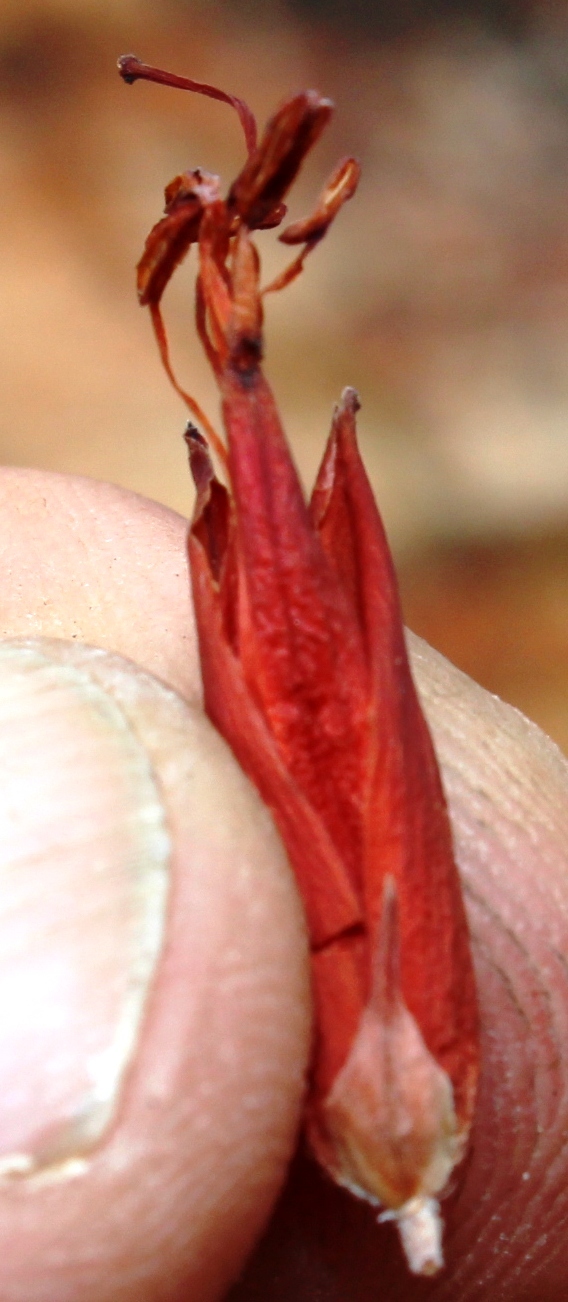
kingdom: Plantae
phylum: Tracheophyta
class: Magnoliopsida
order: Ericales
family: Ericaceae
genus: Erica
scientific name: Erica insignis
